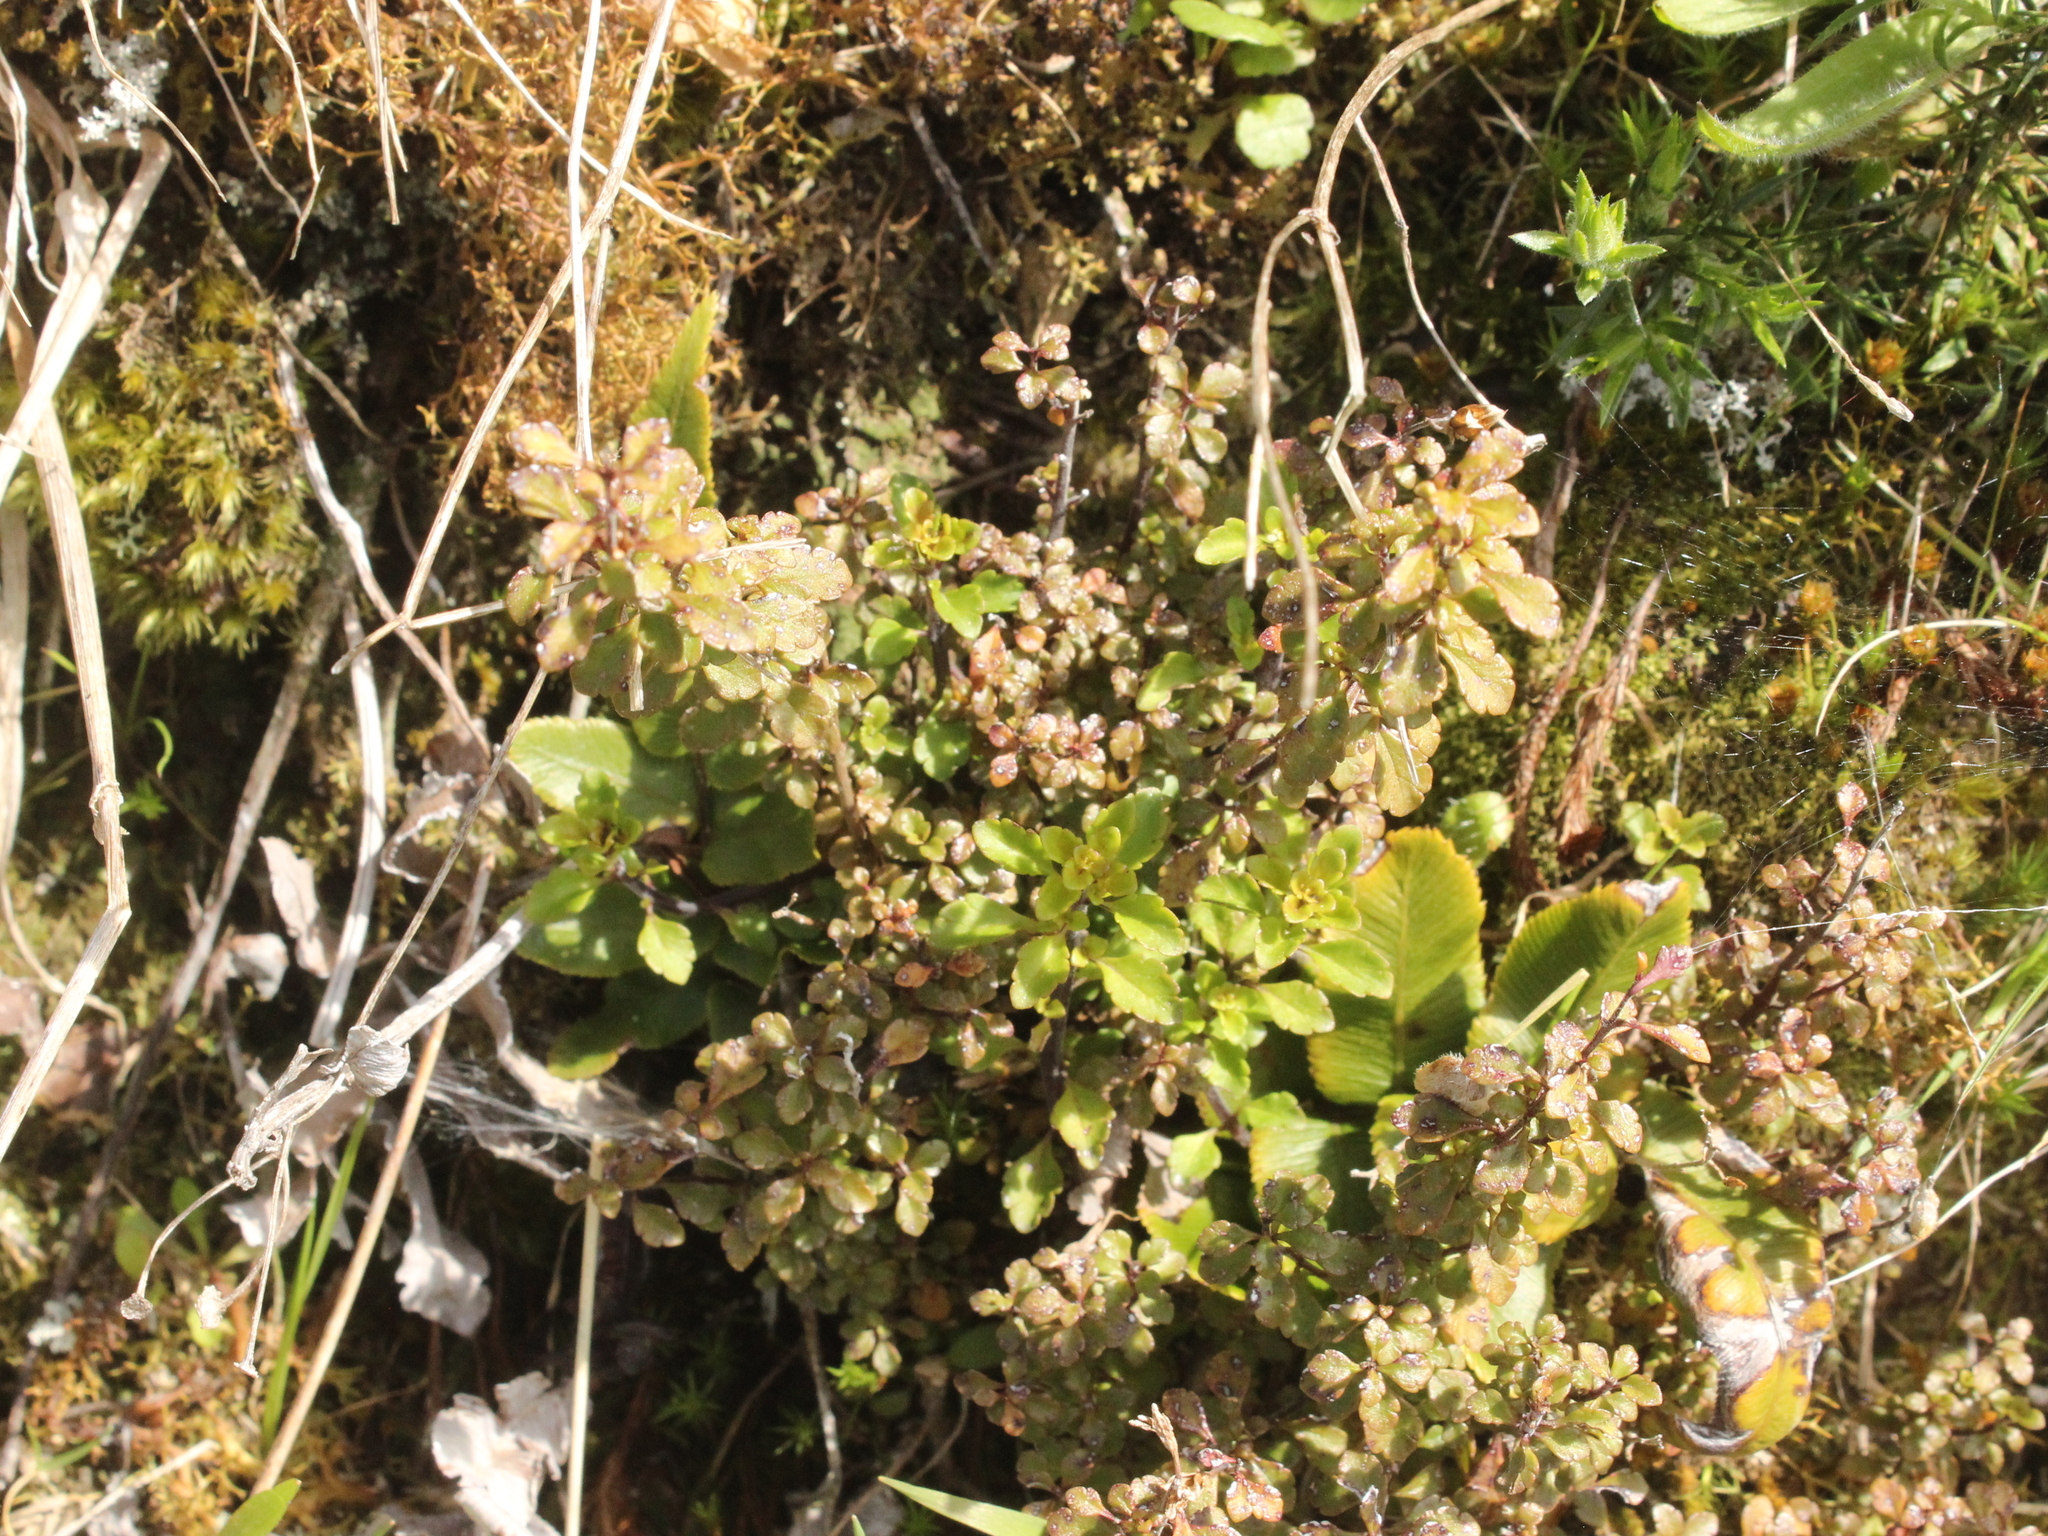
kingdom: Plantae
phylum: Tracheophyta
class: Magnoliopsida
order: Lamiales
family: Orobanchaceae
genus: Euphrasia
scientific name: Euphrasia cuneata
